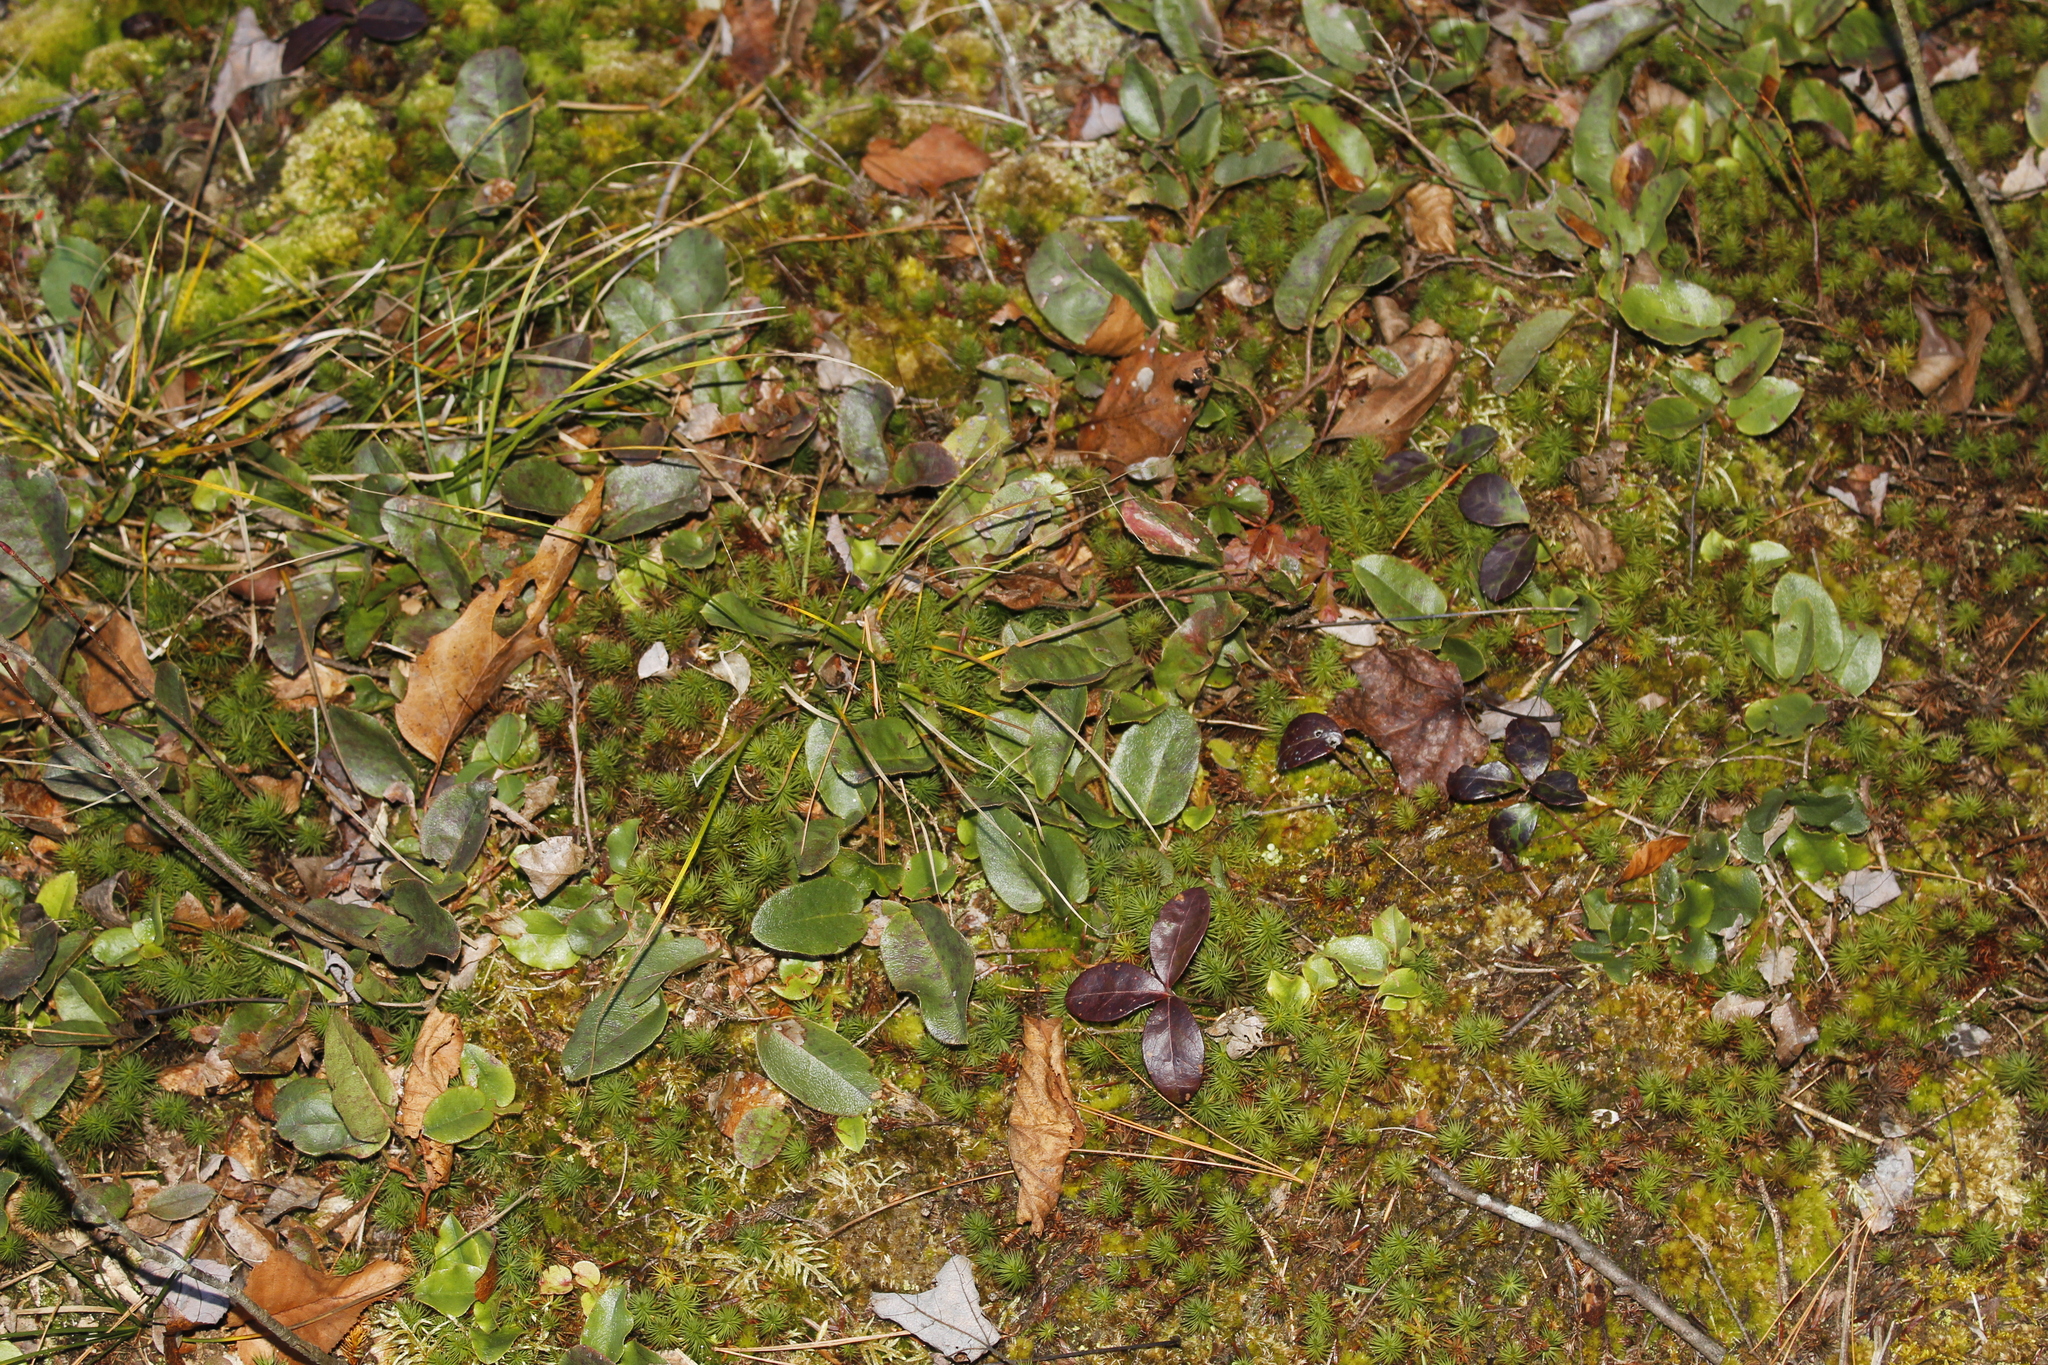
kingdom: Plantae
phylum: Tracheophyta
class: Magnoliopsida
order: Ericales
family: Ericaceae
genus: Epigaea
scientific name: Epigaea repens
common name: Gravelroot
